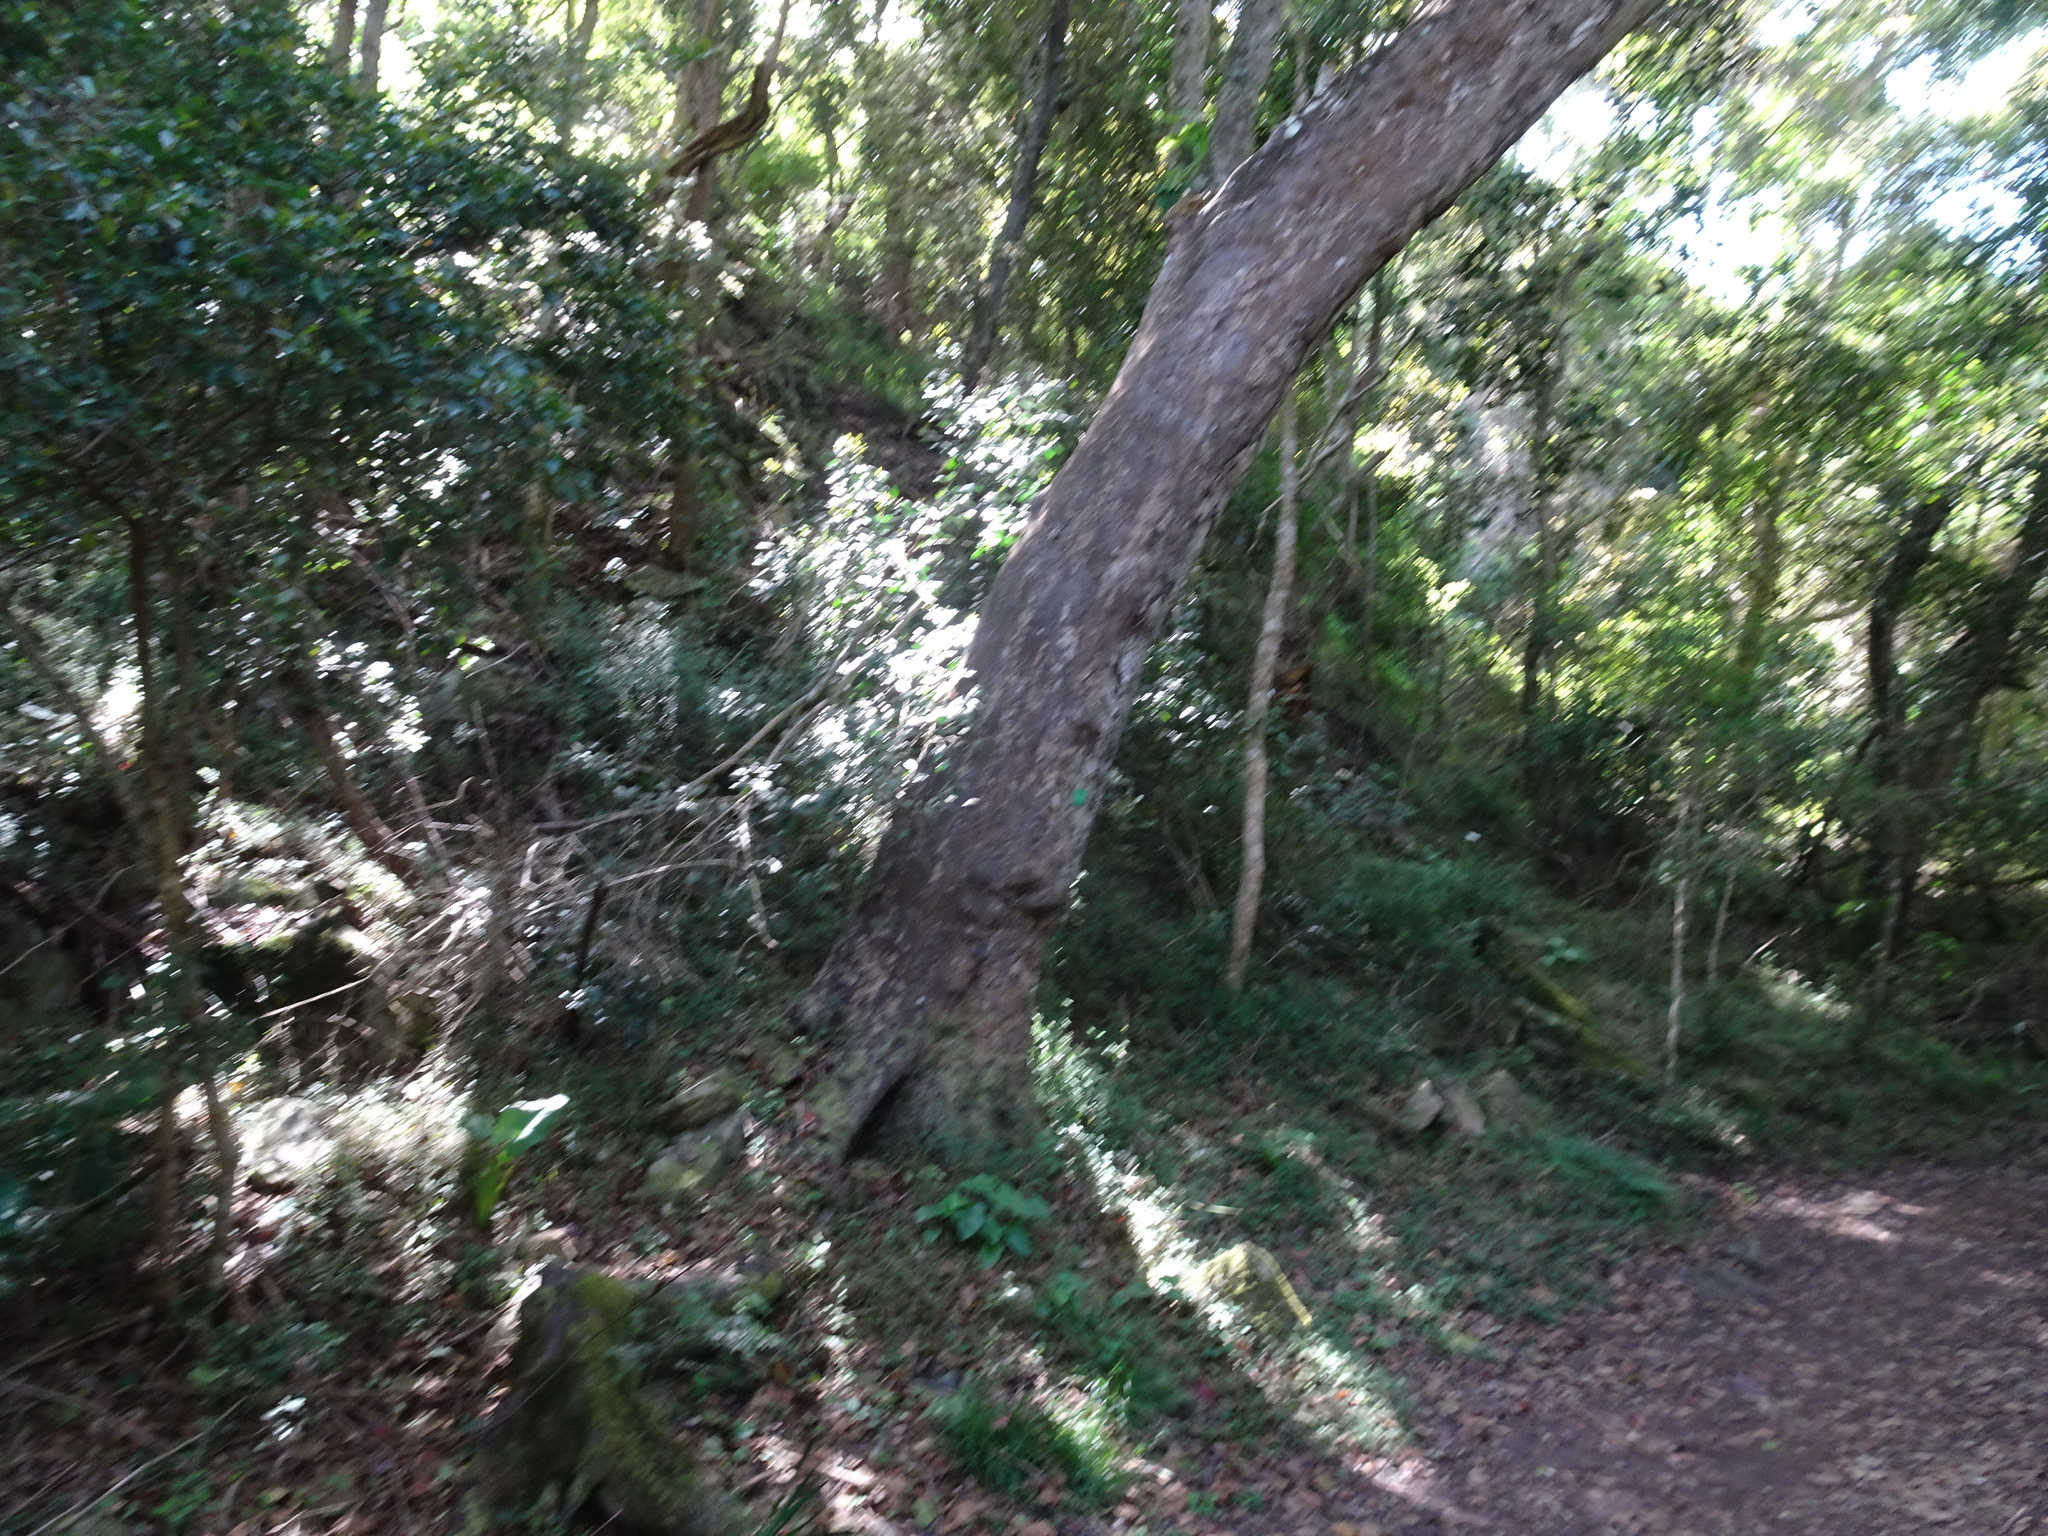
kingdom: Plantae
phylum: Tracheophyta
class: Pinopsida
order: Pinales
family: Podocarpaceae
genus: Afrocarpus
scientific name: Afrocarpus falcatus
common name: Bastard yellowwood
